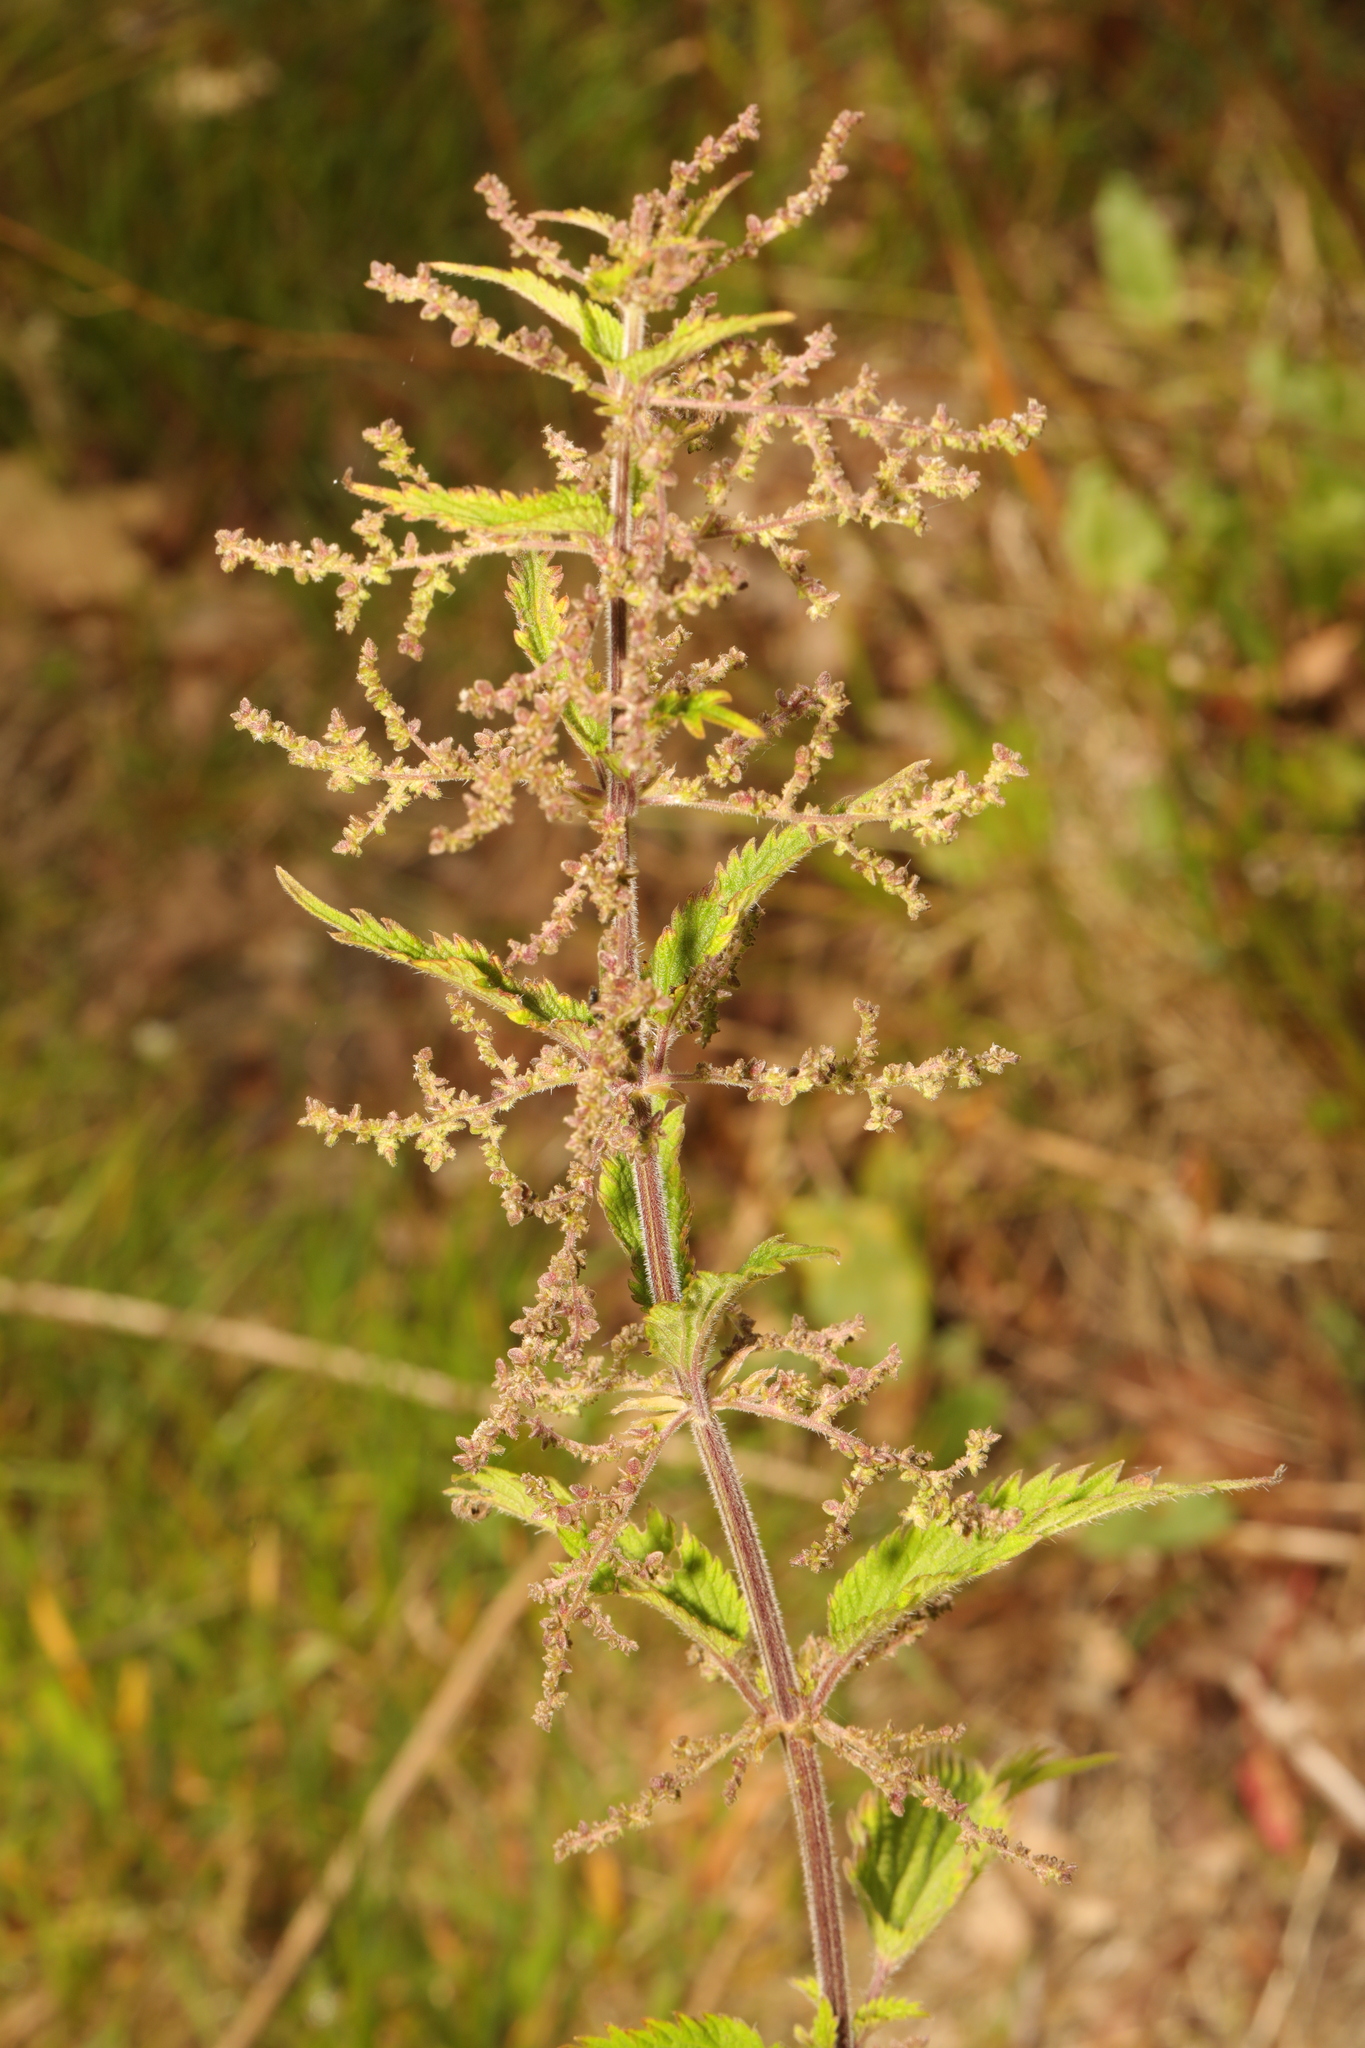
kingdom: Plantae
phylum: Tracheophyta
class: Magnoliopsida
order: Rosales
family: Urticaceae
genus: Urtica
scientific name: Urtica dioica
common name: Common nettle
